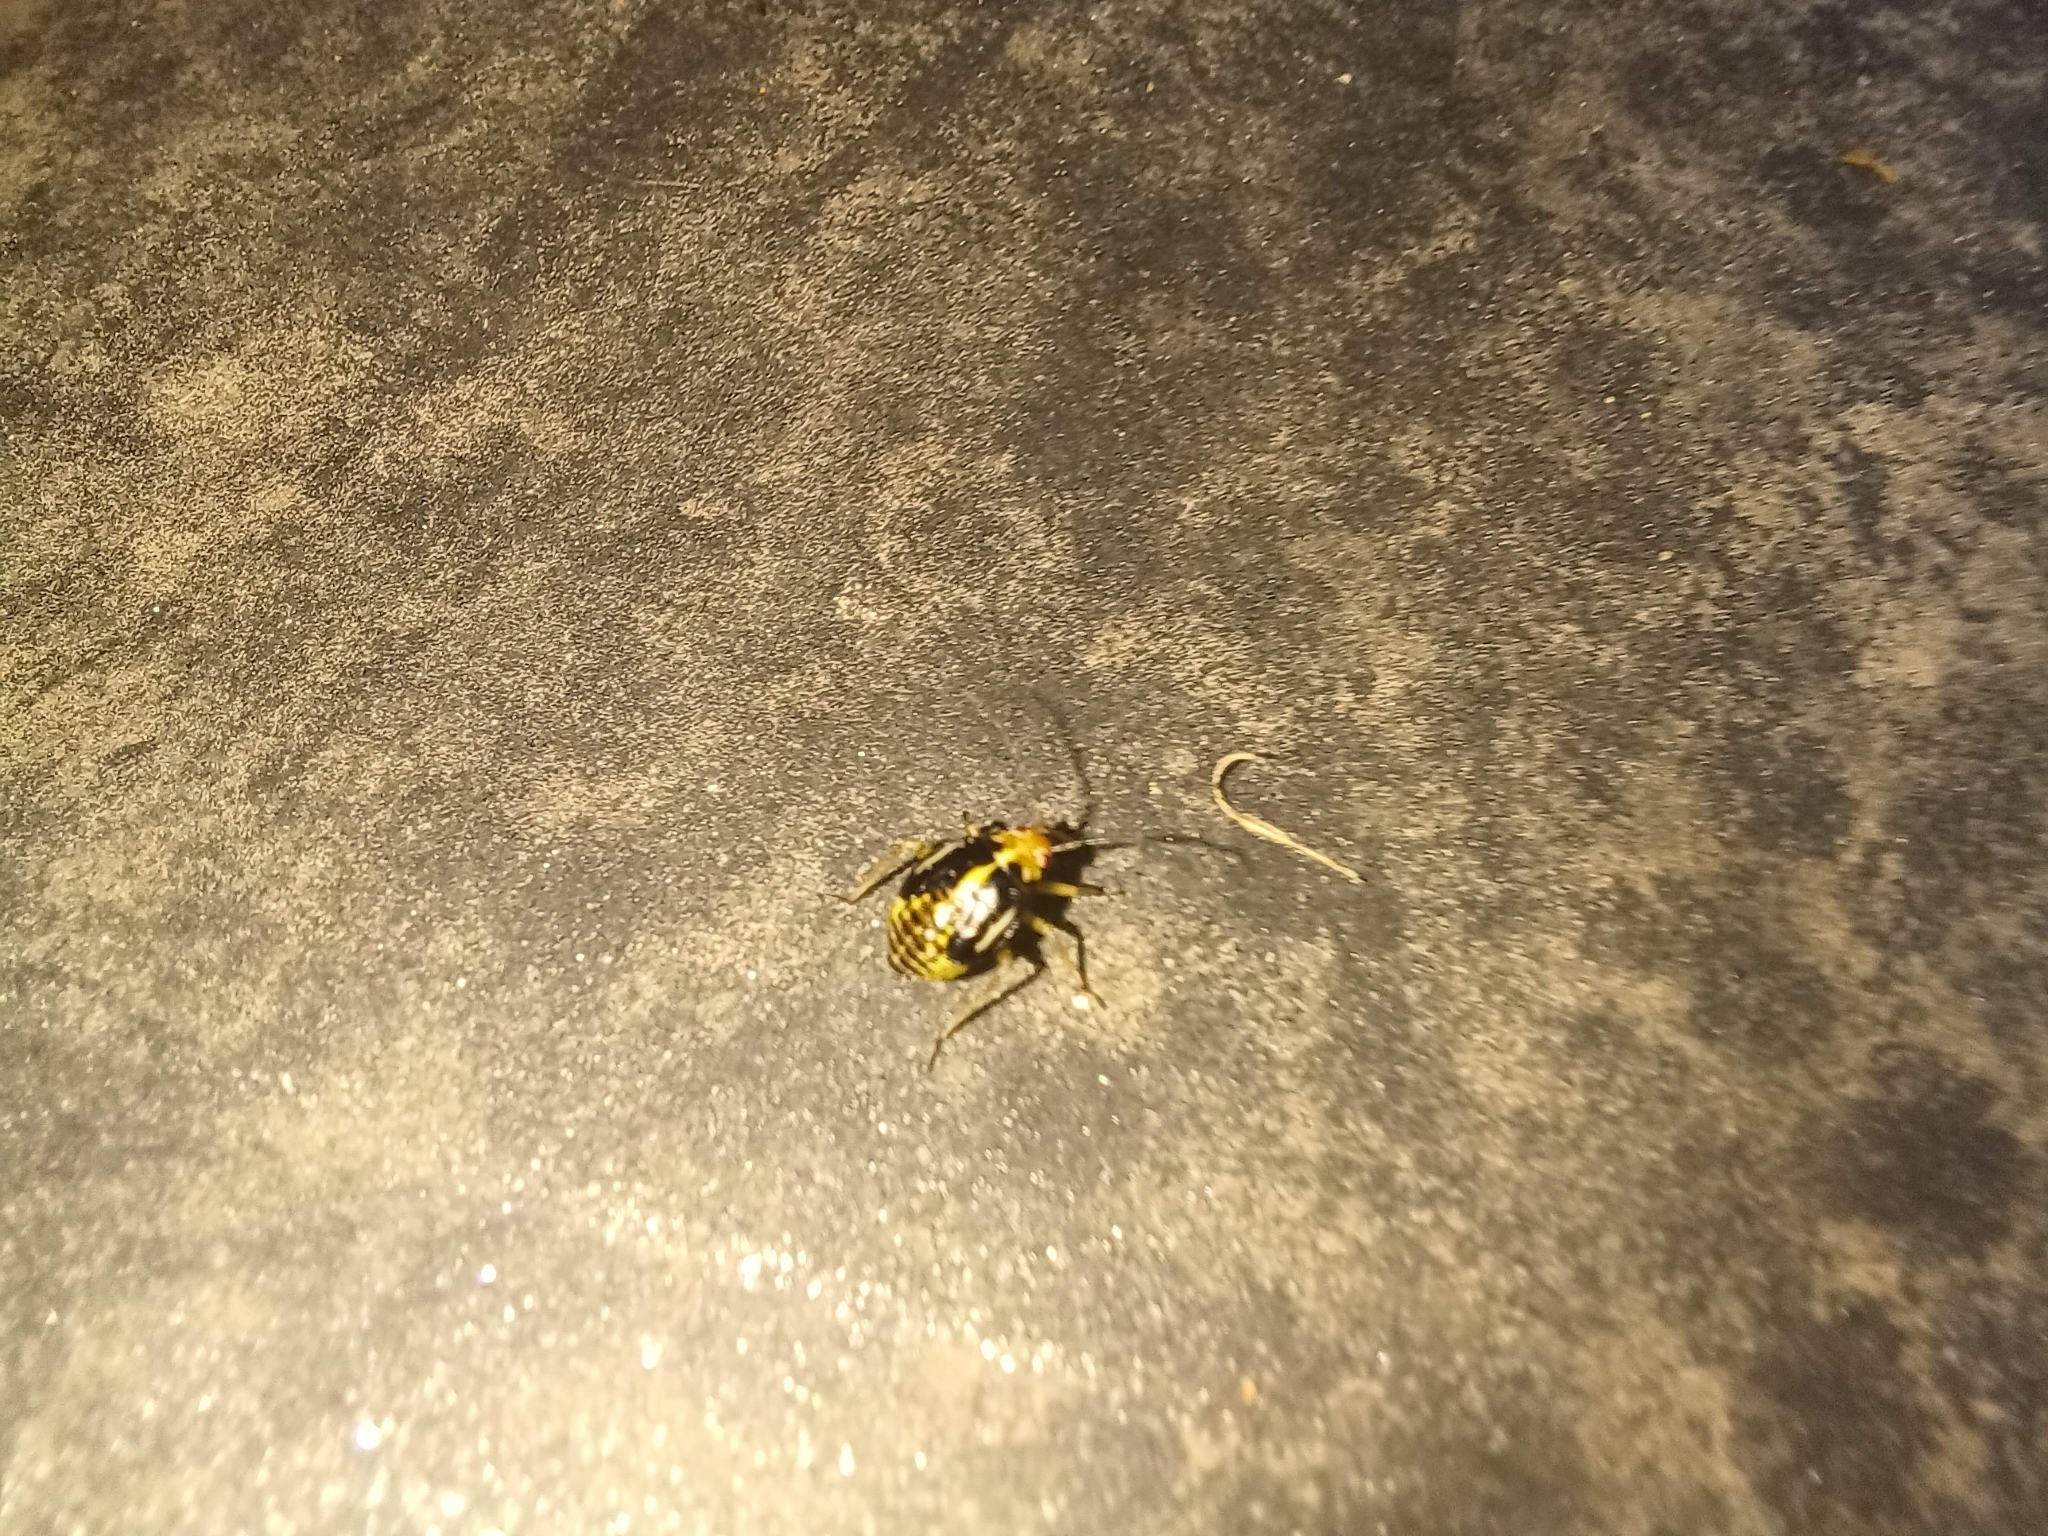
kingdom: Animalia
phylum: Arthropoda
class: Insecta
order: Hemiptera
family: Miridae
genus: Poecilocapsus
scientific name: Poecilocapsus lineatus
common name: Four-lined plant bug
